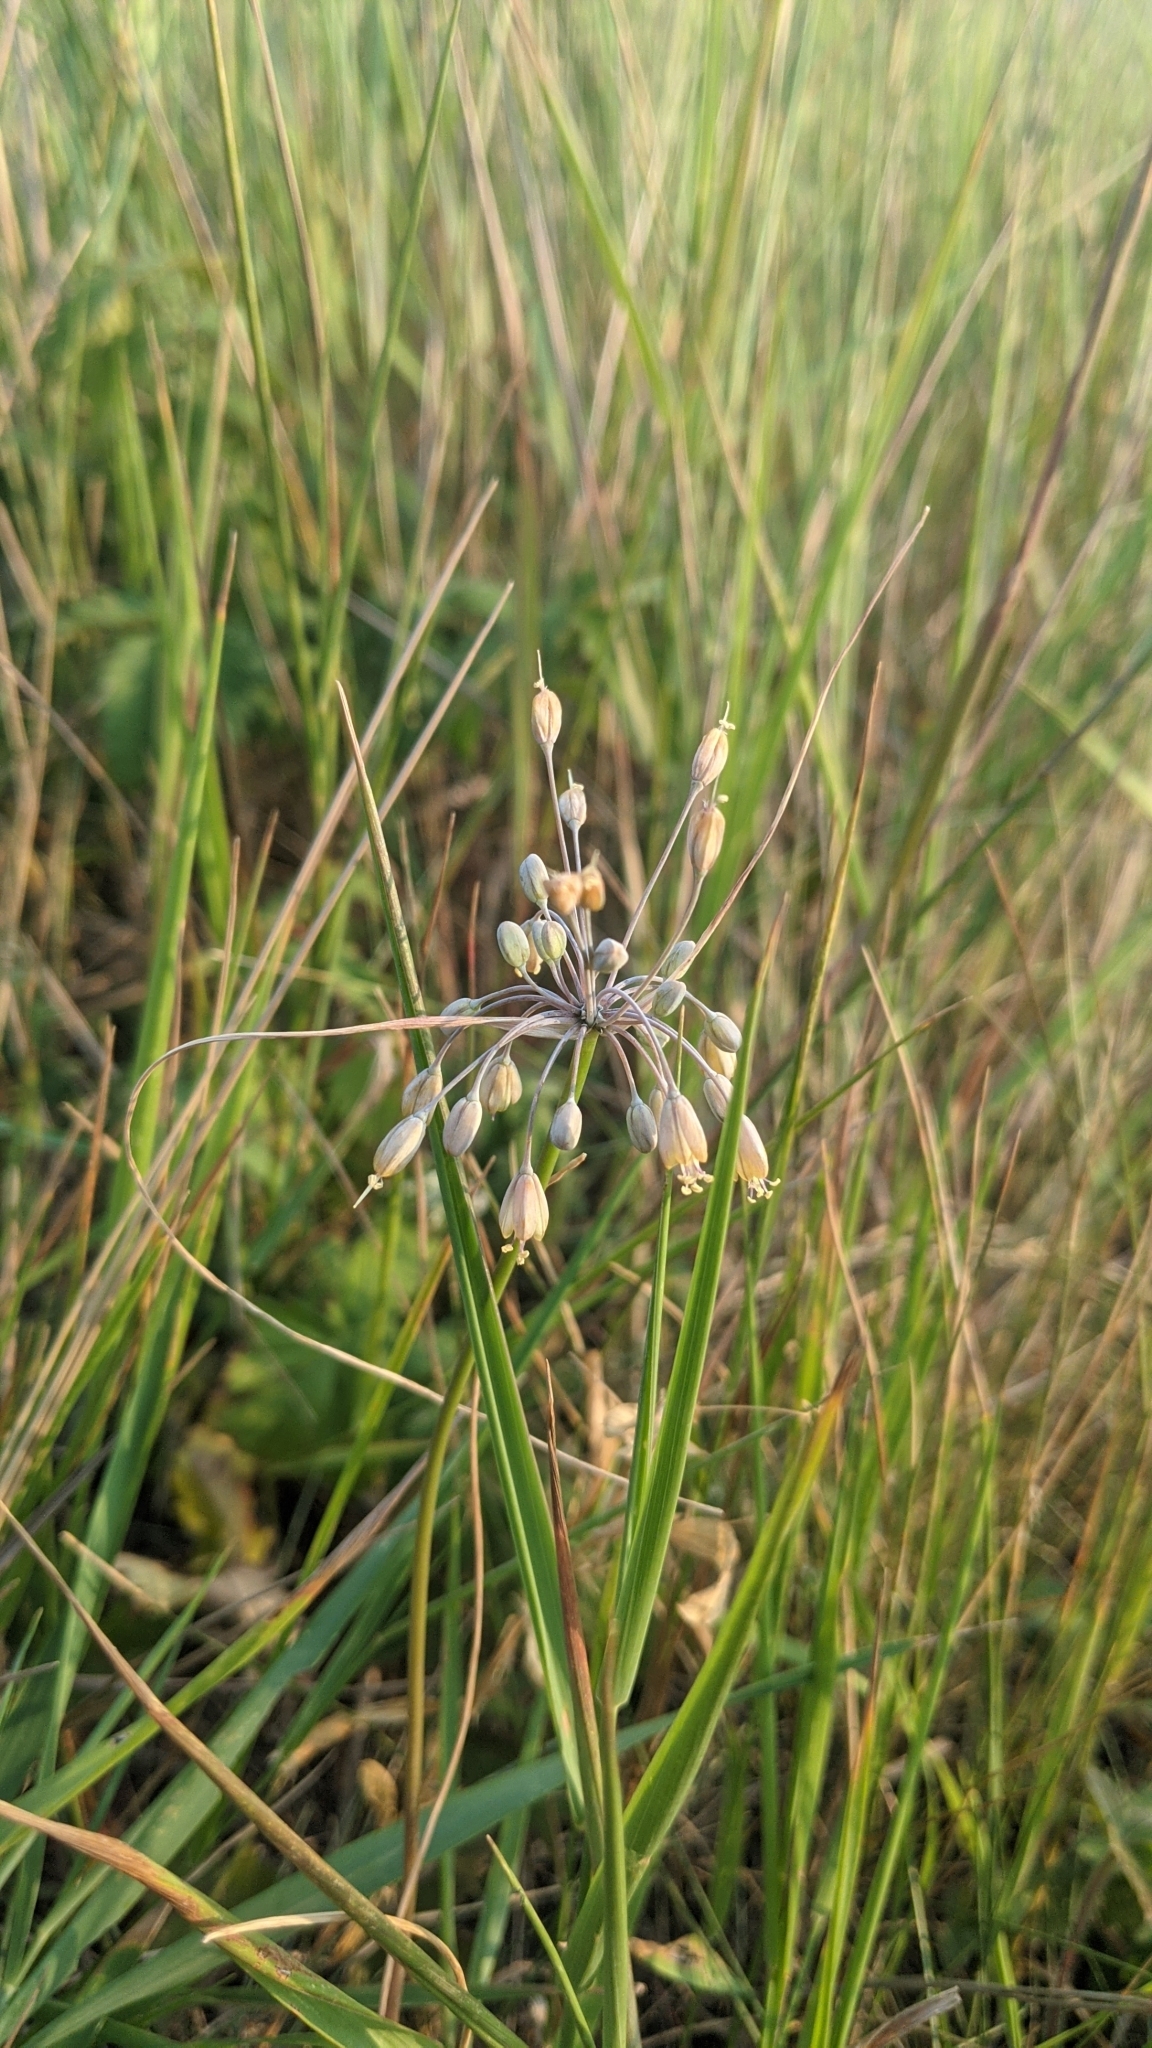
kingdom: Plantae
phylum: Tracheophyta
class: Liliopsida
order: Asparagales
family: Amaryllidaceae
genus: Allium
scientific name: Allium flavum
